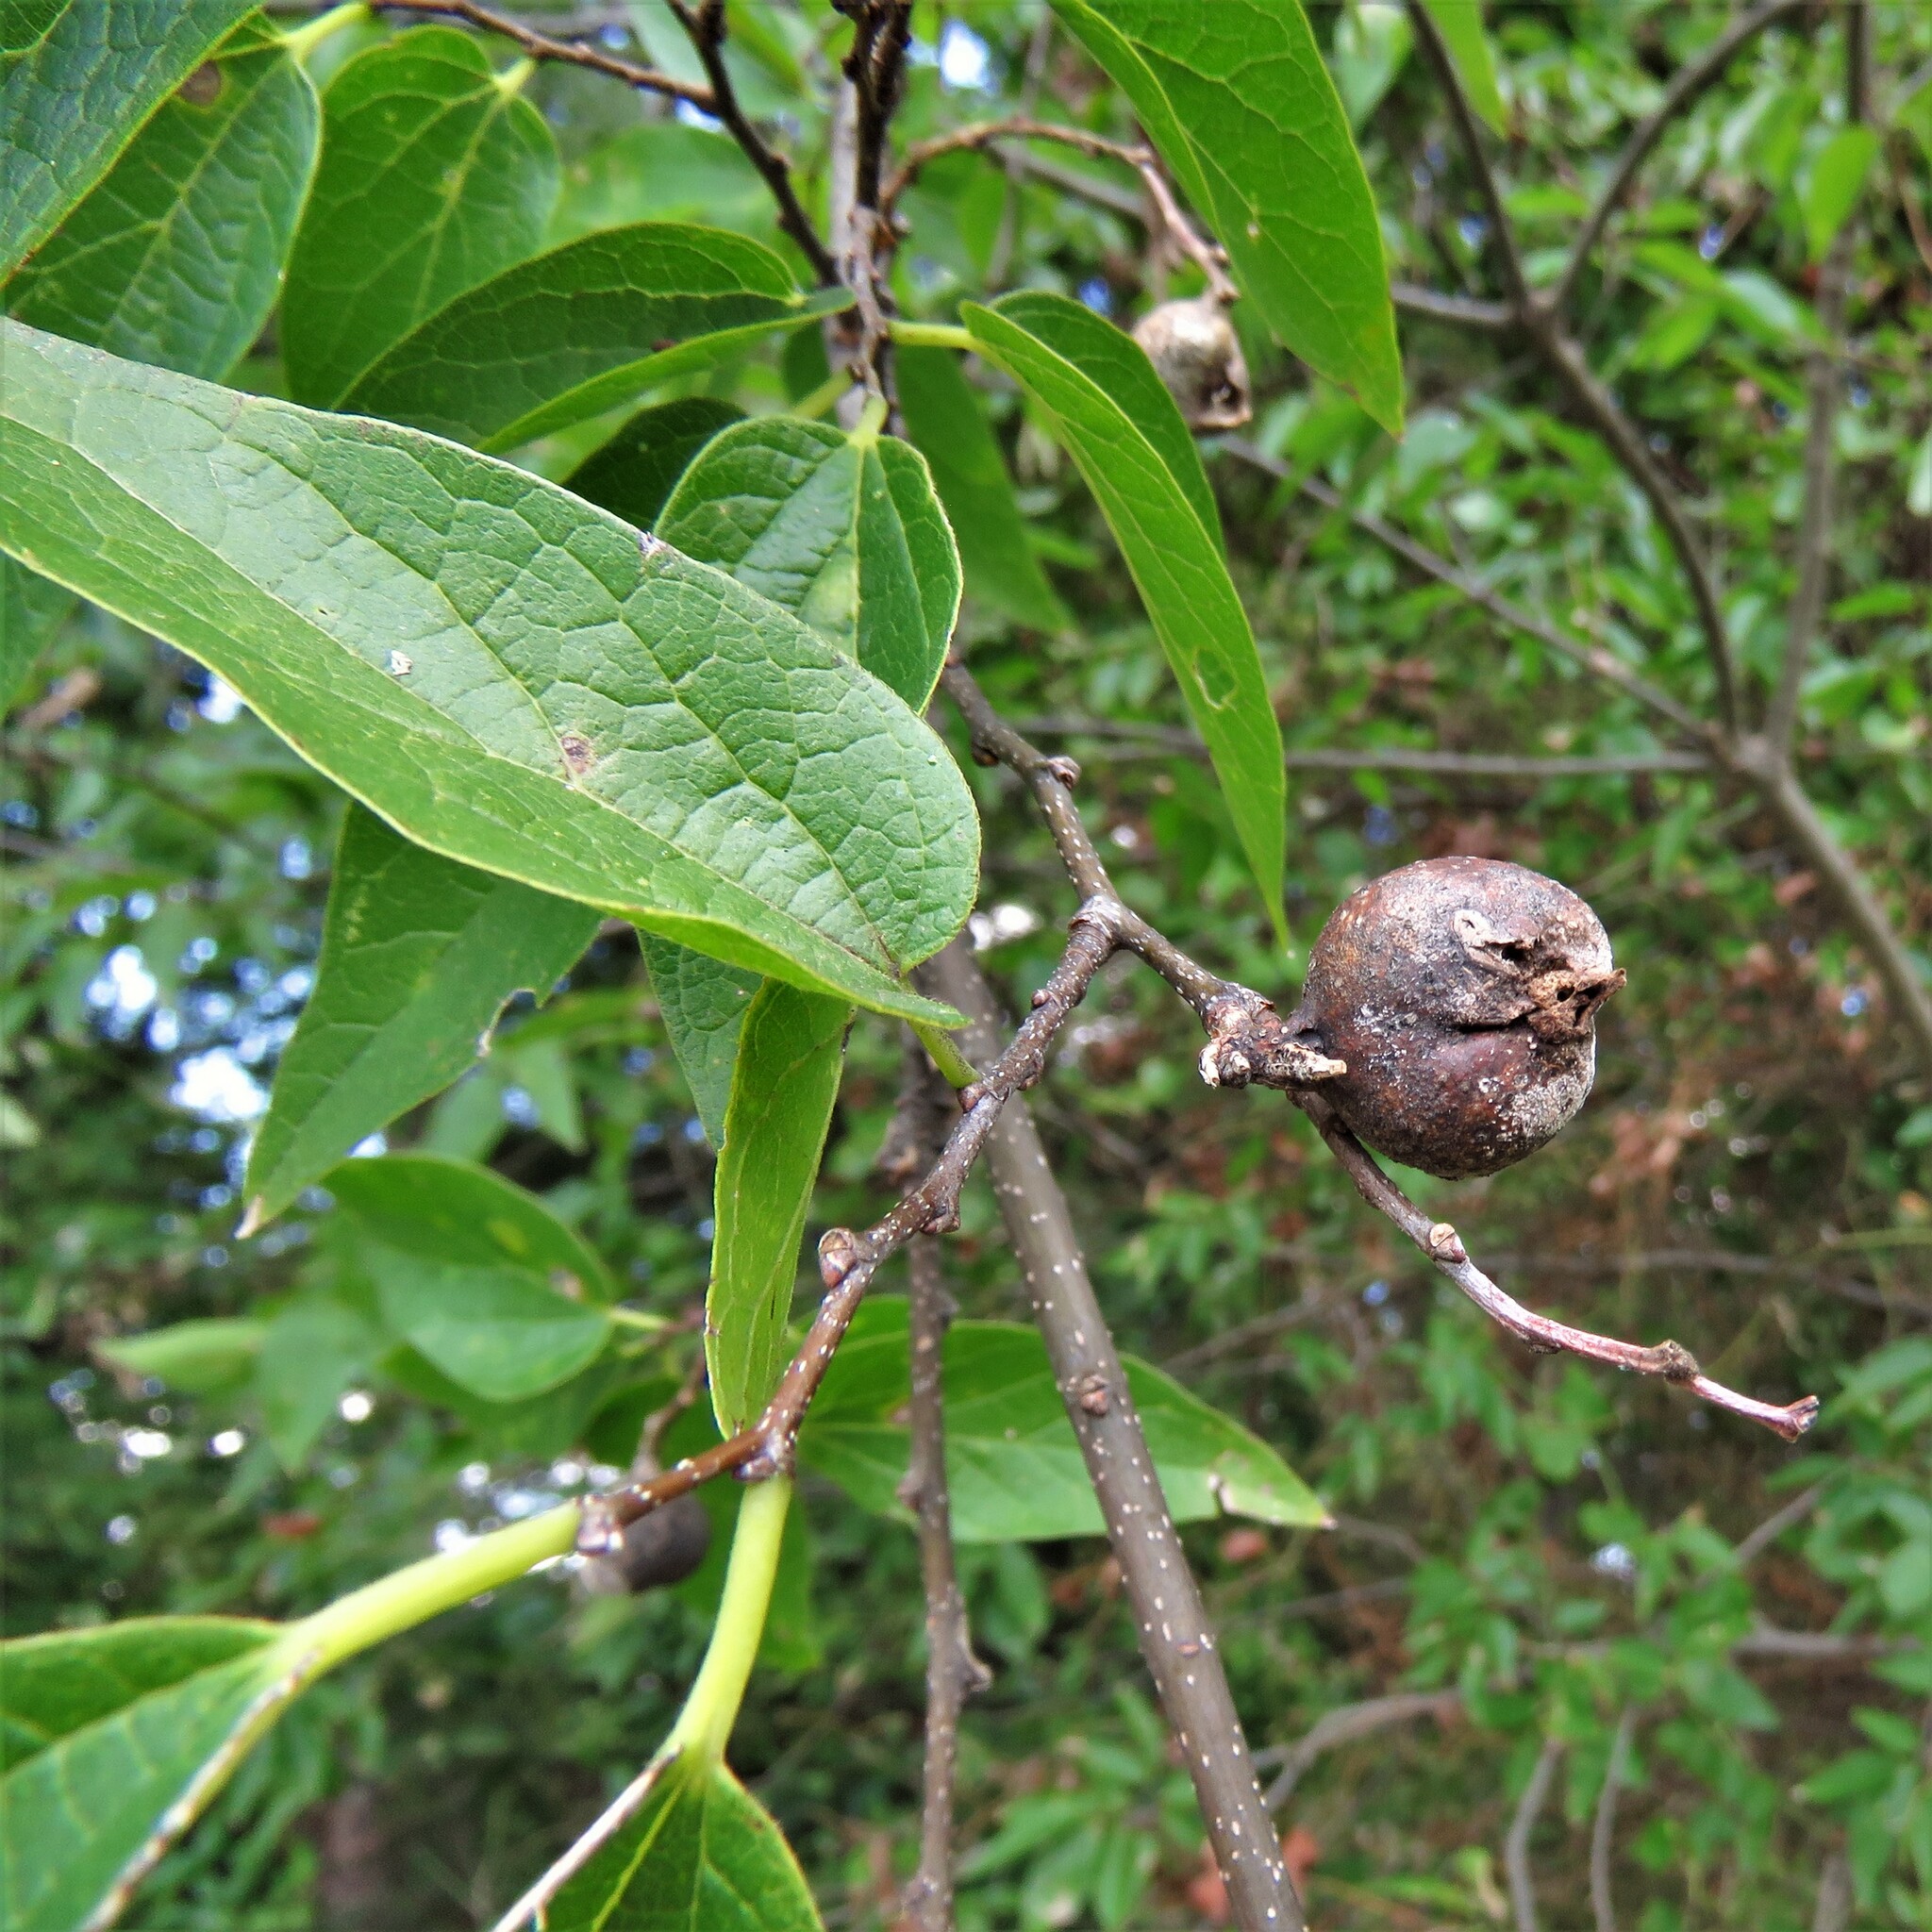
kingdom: Animalia
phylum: Arthropoda
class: Insecta
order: Hemiptera
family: Aphalaridae
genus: Pachypsylla
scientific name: Pachypsylla venusta
